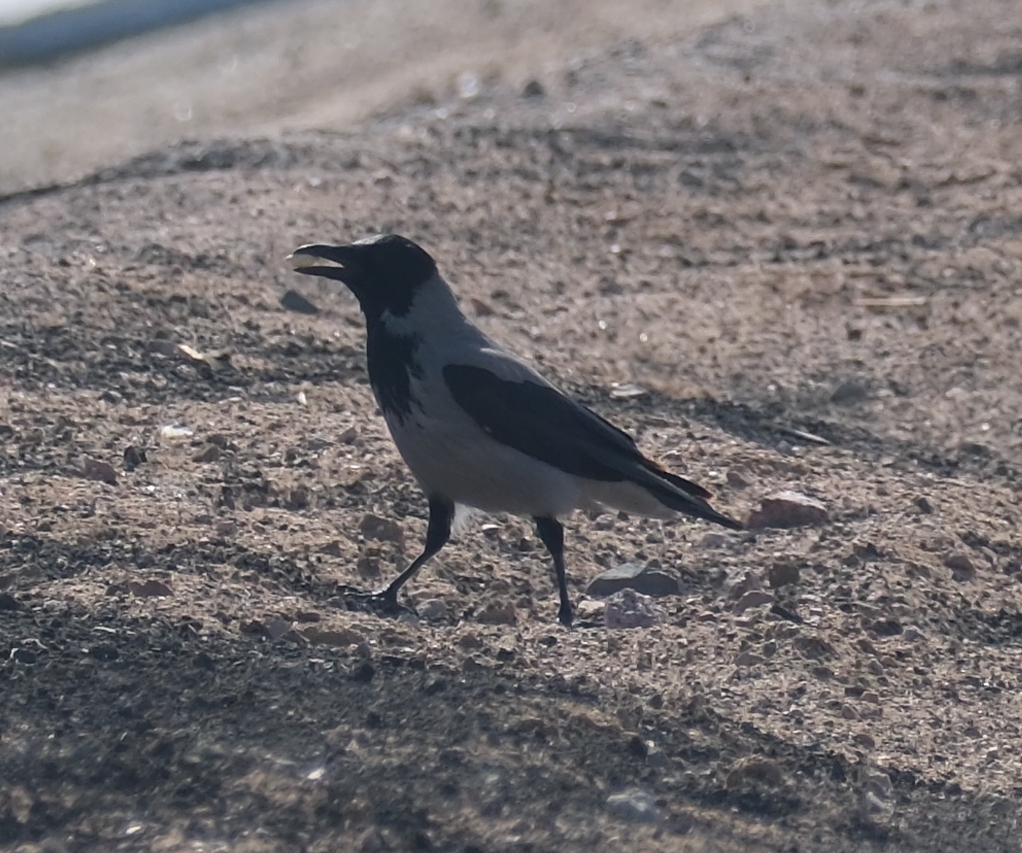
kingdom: Animalia
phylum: Chordata
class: Aves
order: Passeriformes
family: Corvidae
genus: Corvus
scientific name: Corvus cornix
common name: Hooded crow
